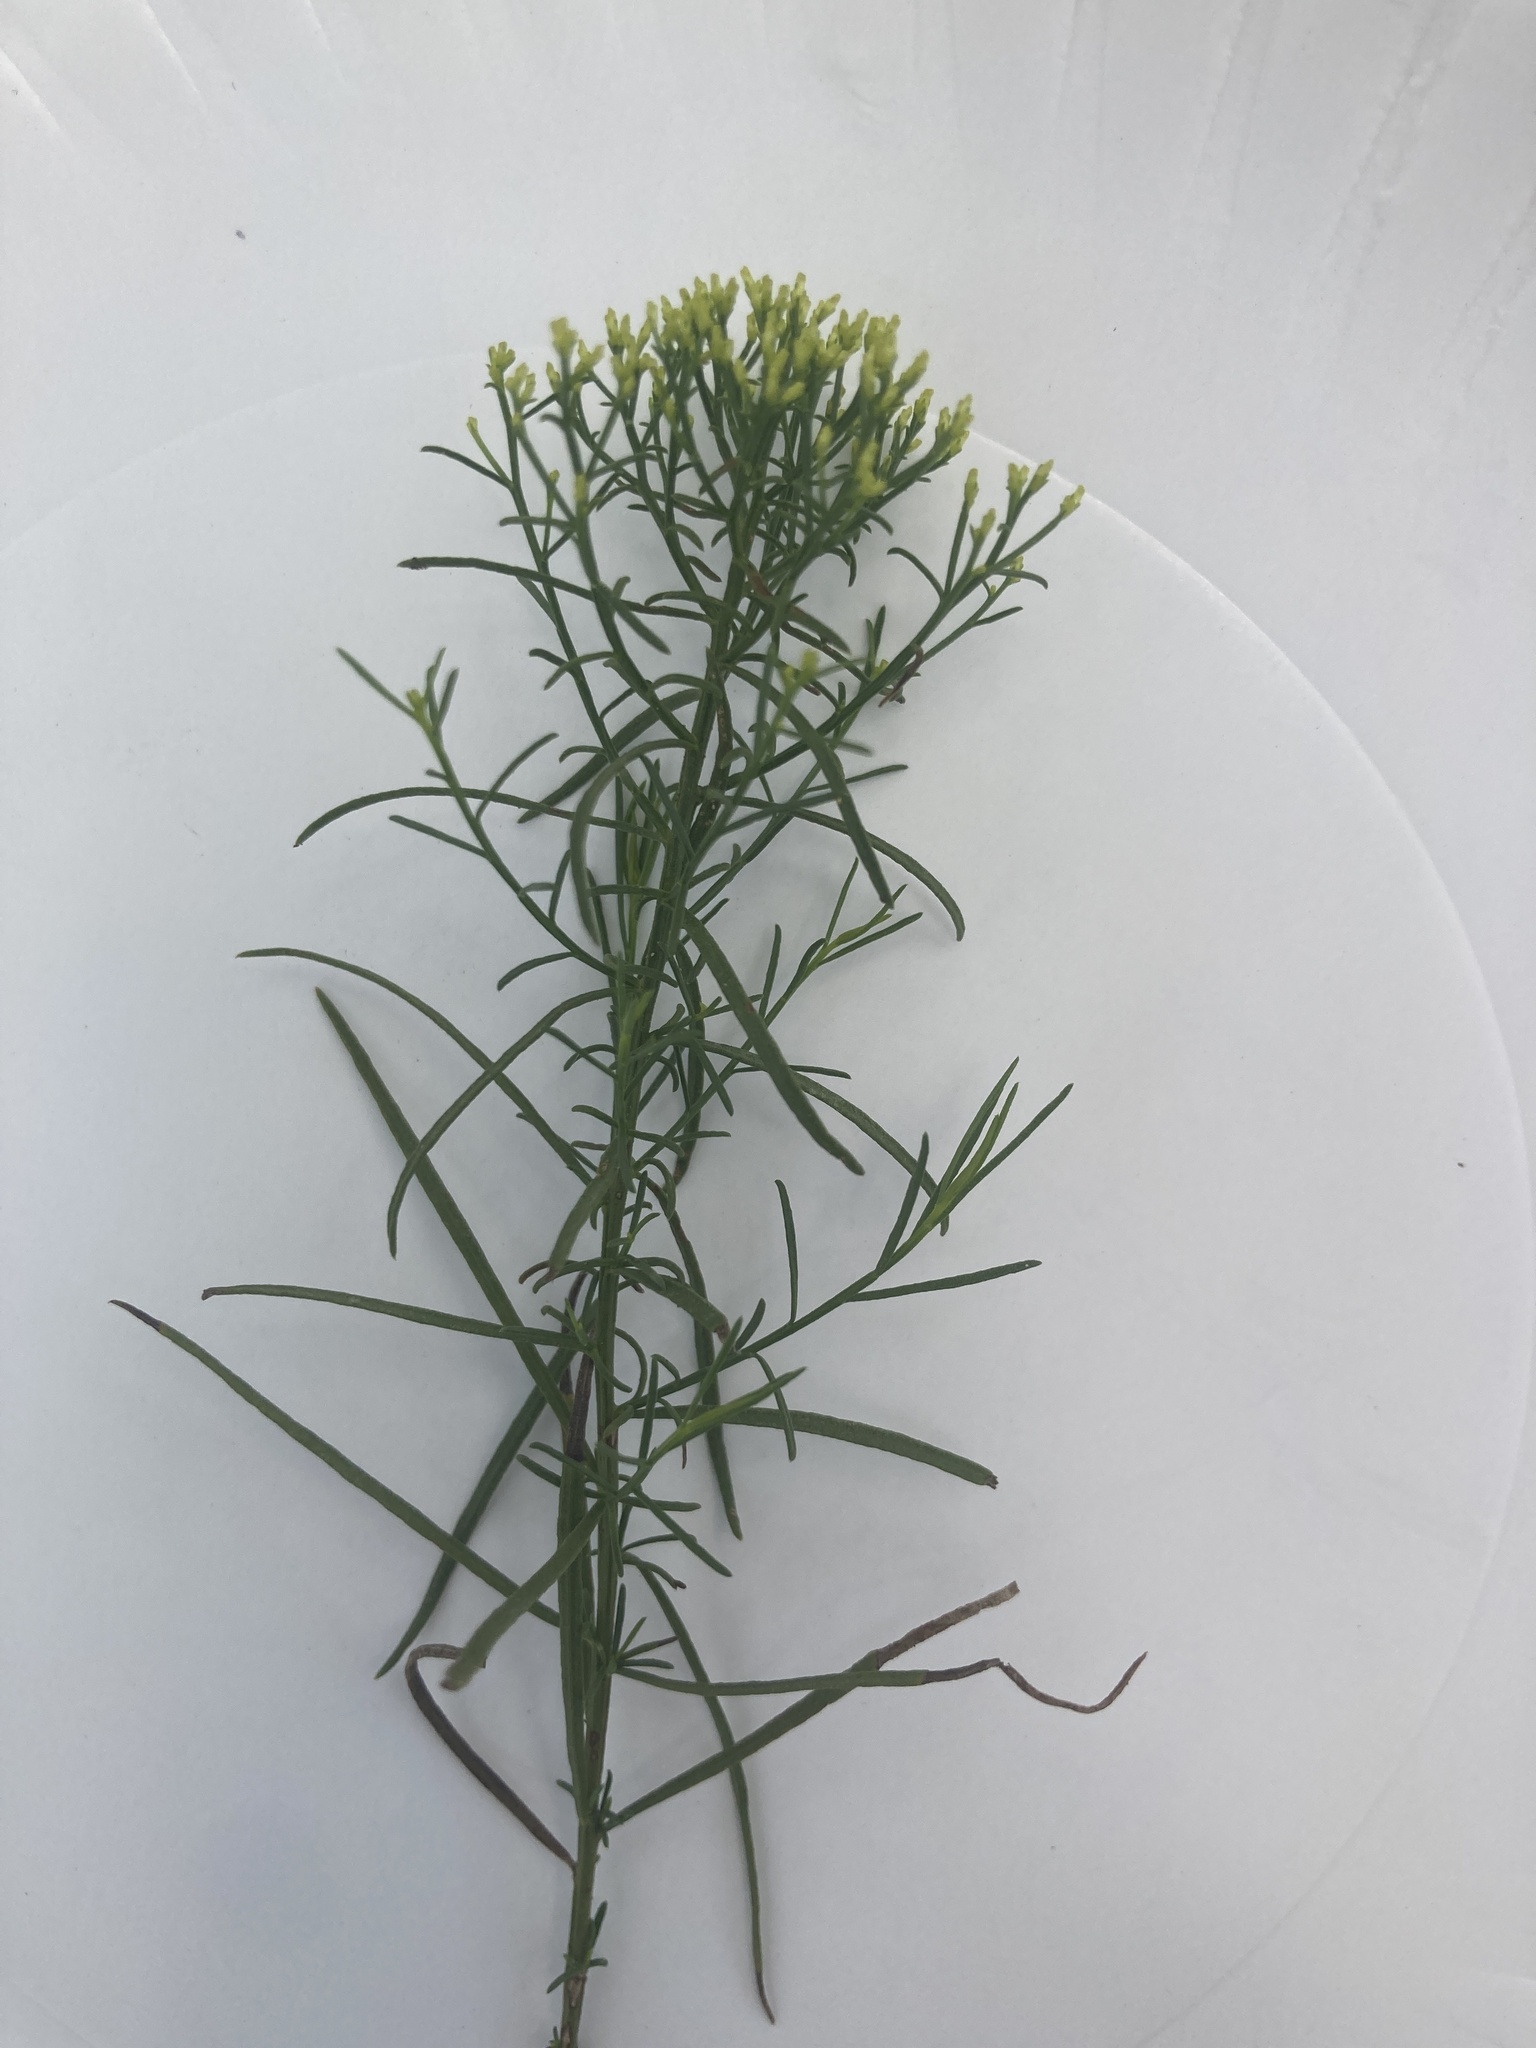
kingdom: Plantae
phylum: Tracheophyta
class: Magnoliopsida
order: Asterales
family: Asteraceae
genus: Gutierrezia
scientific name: Gutierrezia sarothrae
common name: Broom snakeweed
